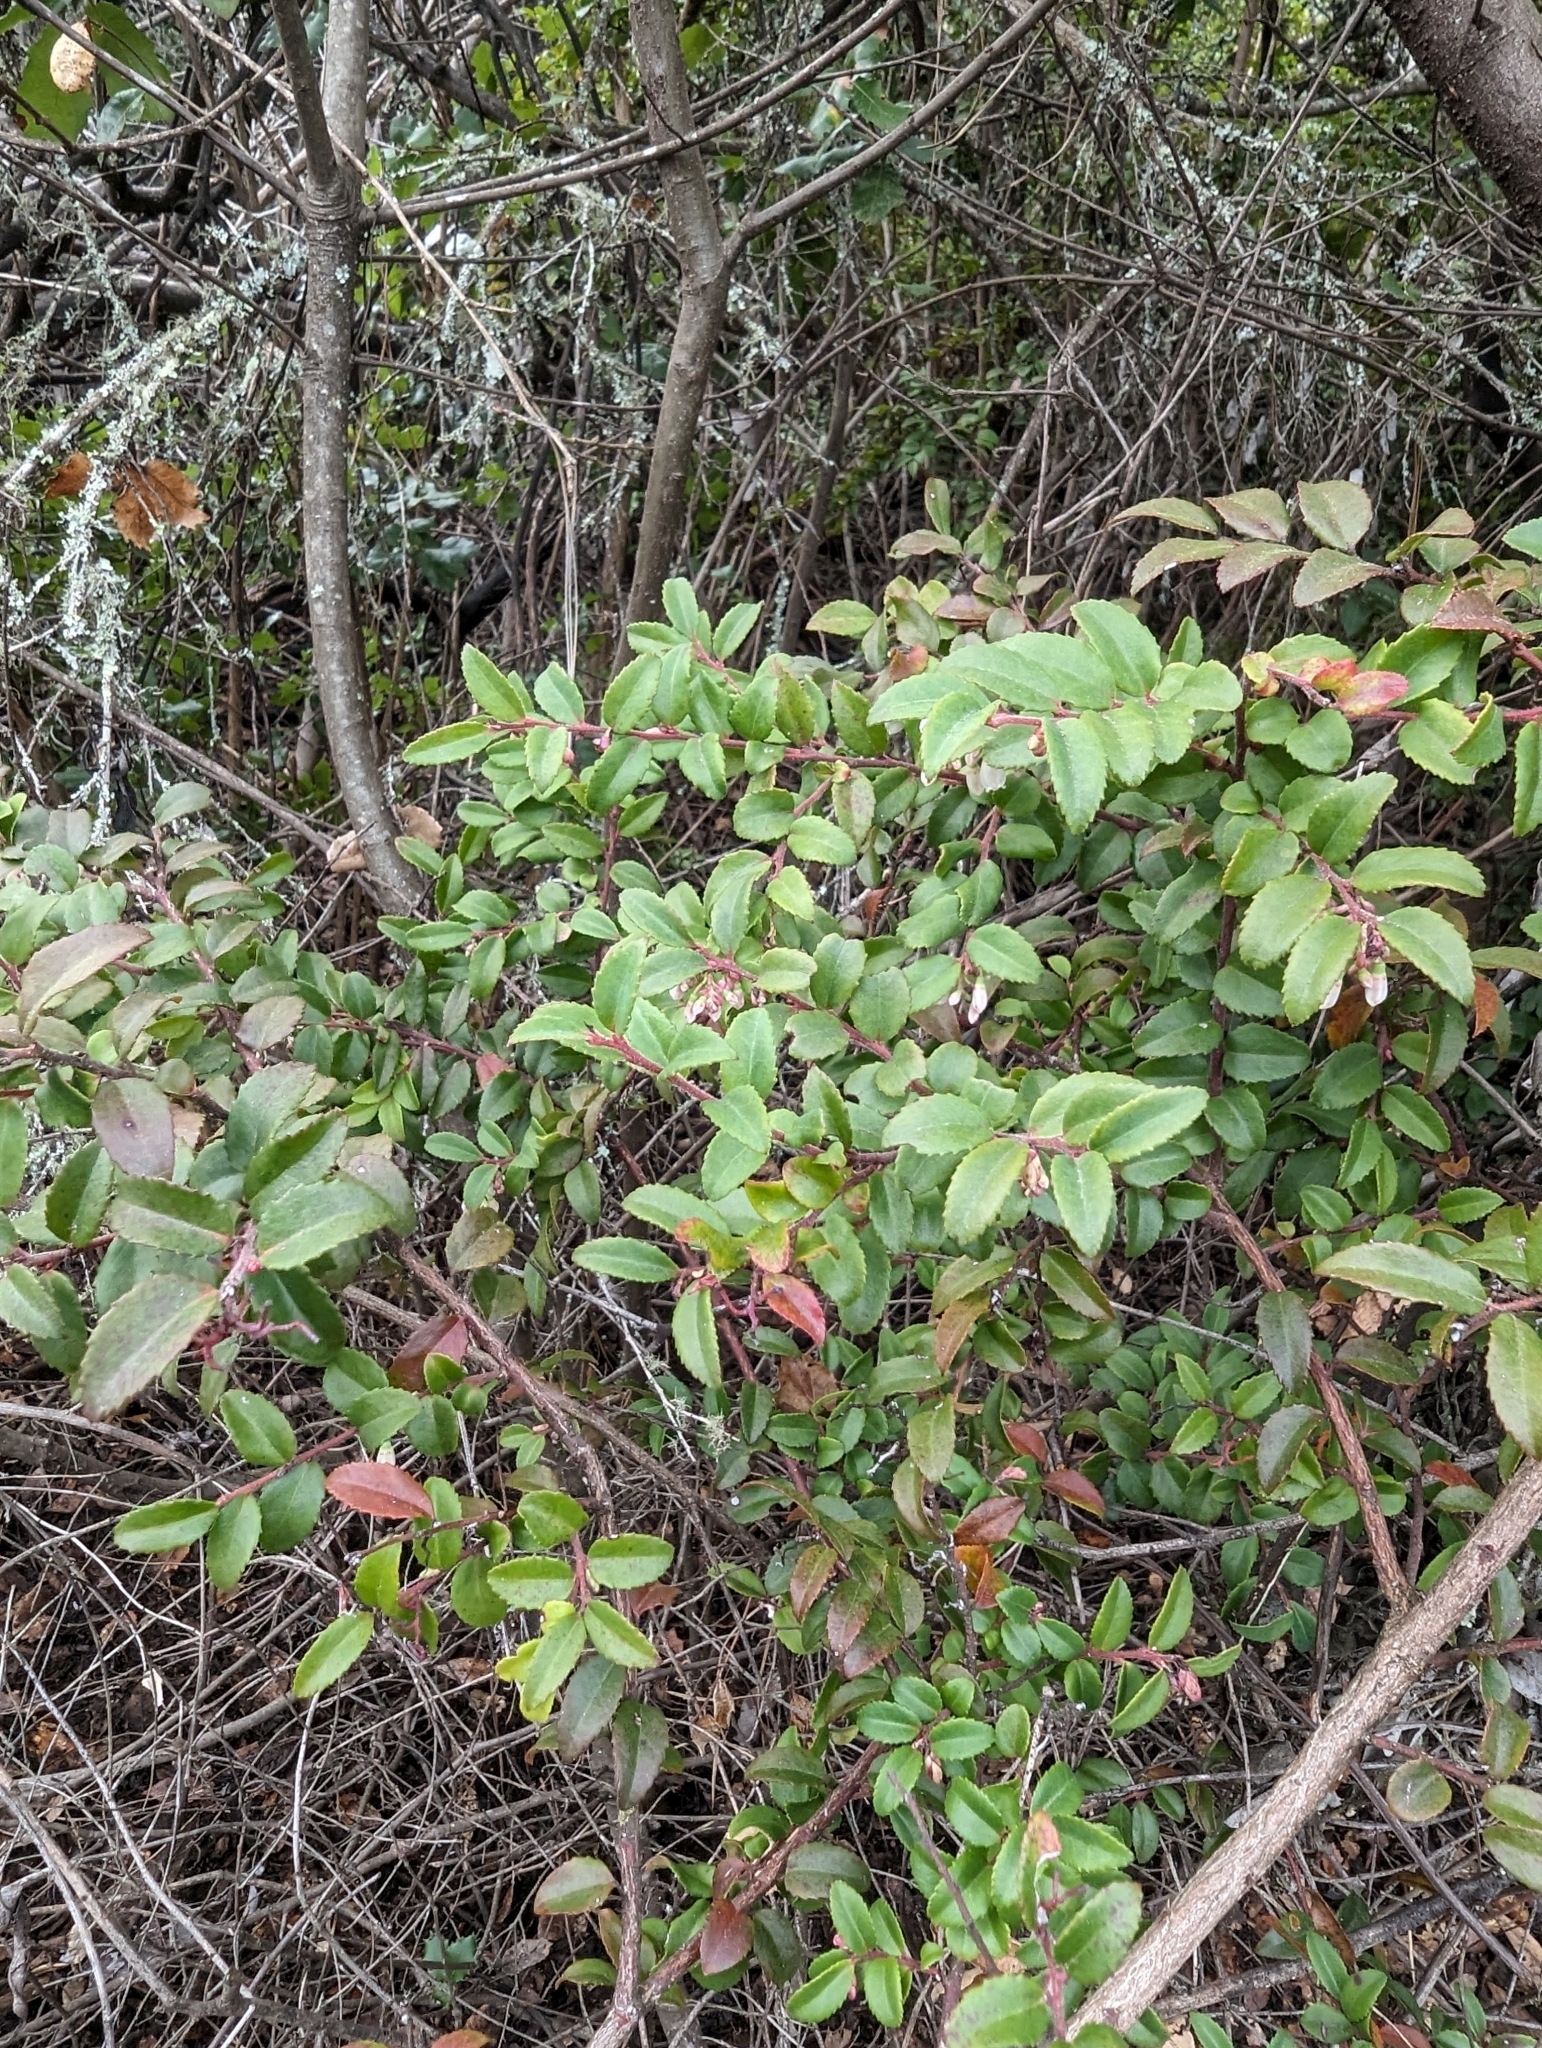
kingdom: Plantae
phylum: Tracheophyta
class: Magnoliopsida
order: Ericales
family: Ericaceae
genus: Vaccinium
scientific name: Vaccinium ovatum
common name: California-huckleberry
